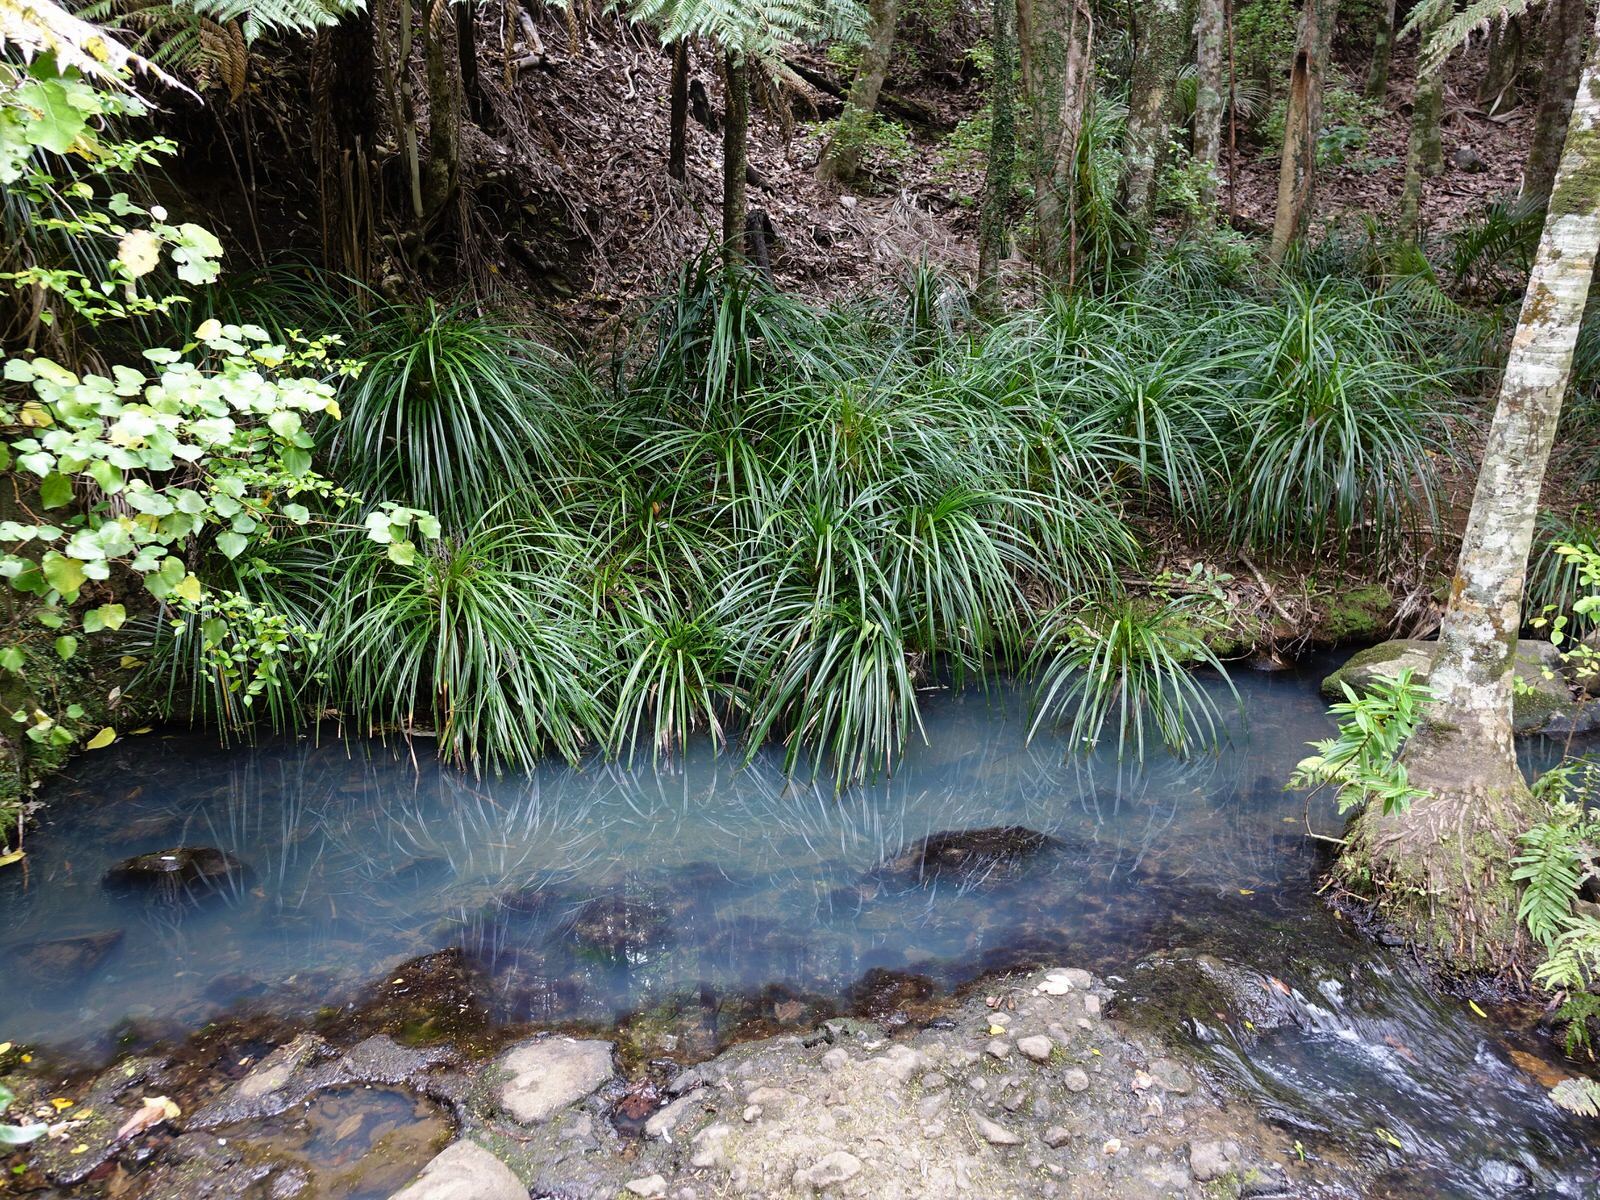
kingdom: Plantae
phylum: Tracheophyta
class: Liliopsida
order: Pandanales
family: Pandanaceae
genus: Freycinetia
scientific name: Freycinetia banksii
